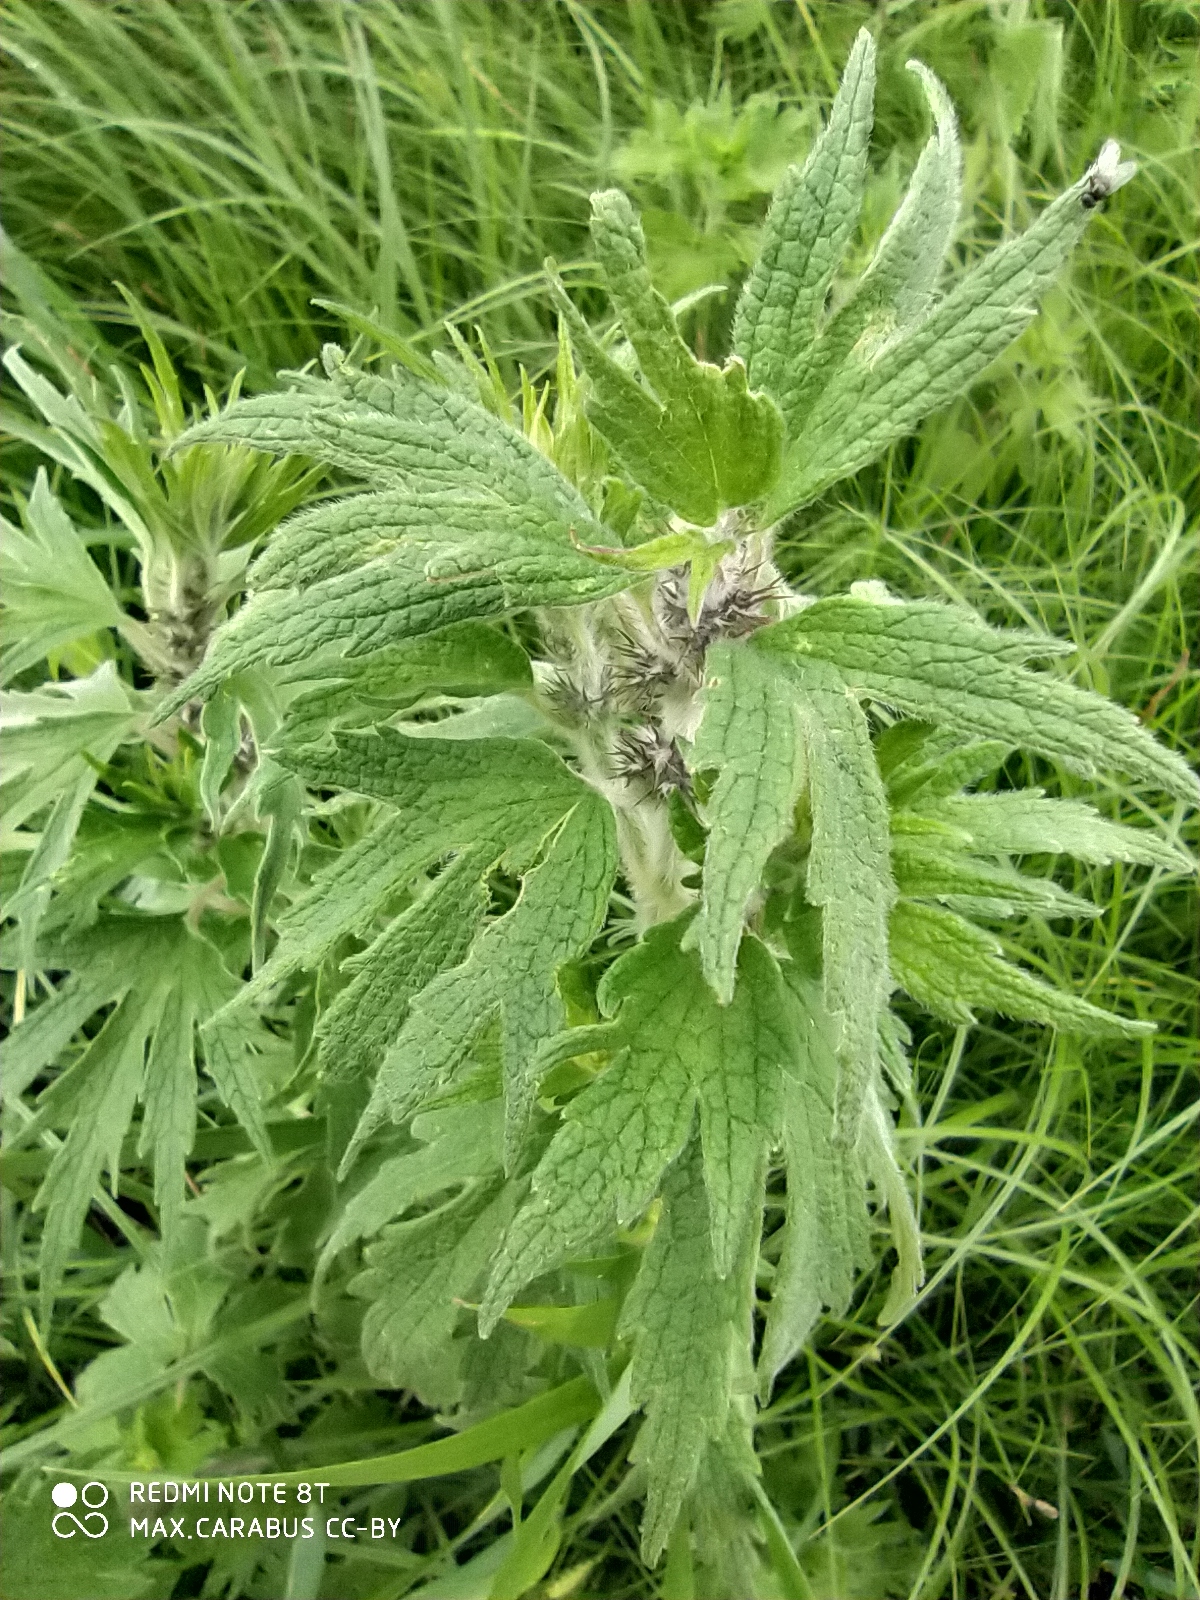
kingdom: Plantae
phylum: Tracheophyta
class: Magnoliopsida
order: Lamiales
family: Lamiaceae
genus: Leonurus
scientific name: Leonurus quinquelobatus
